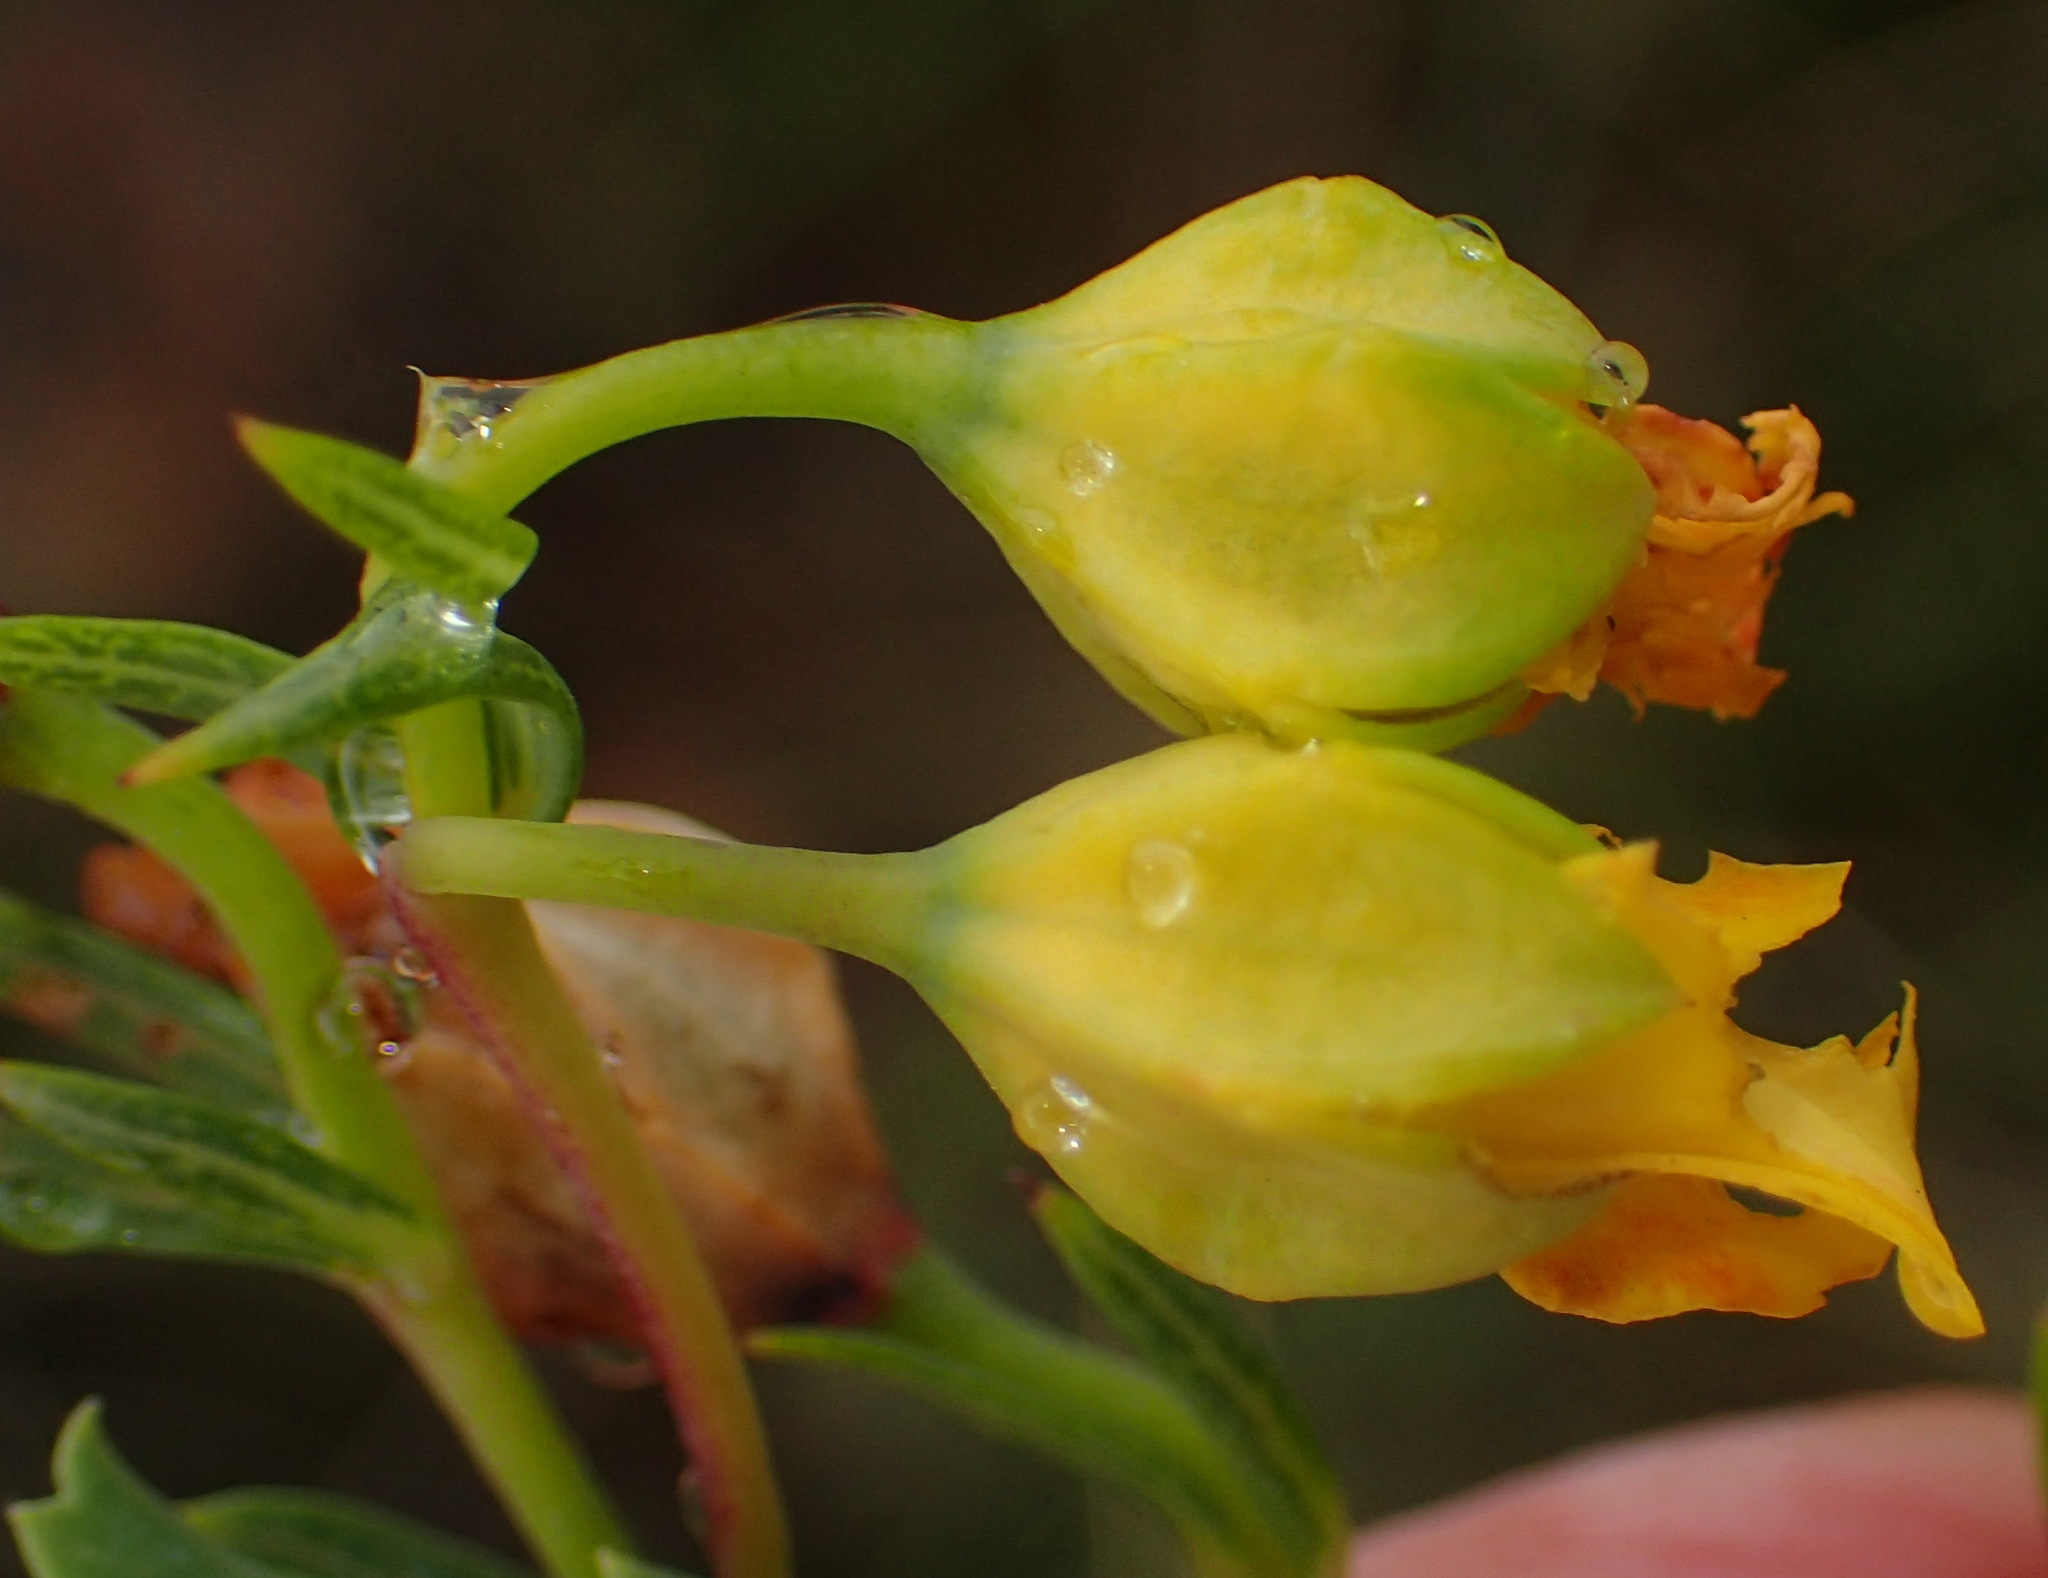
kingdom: Plantae
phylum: Tracheophyta
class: Magnoliopsida
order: Malvales
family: Malvaceae
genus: Hermannia
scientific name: Hermannia
